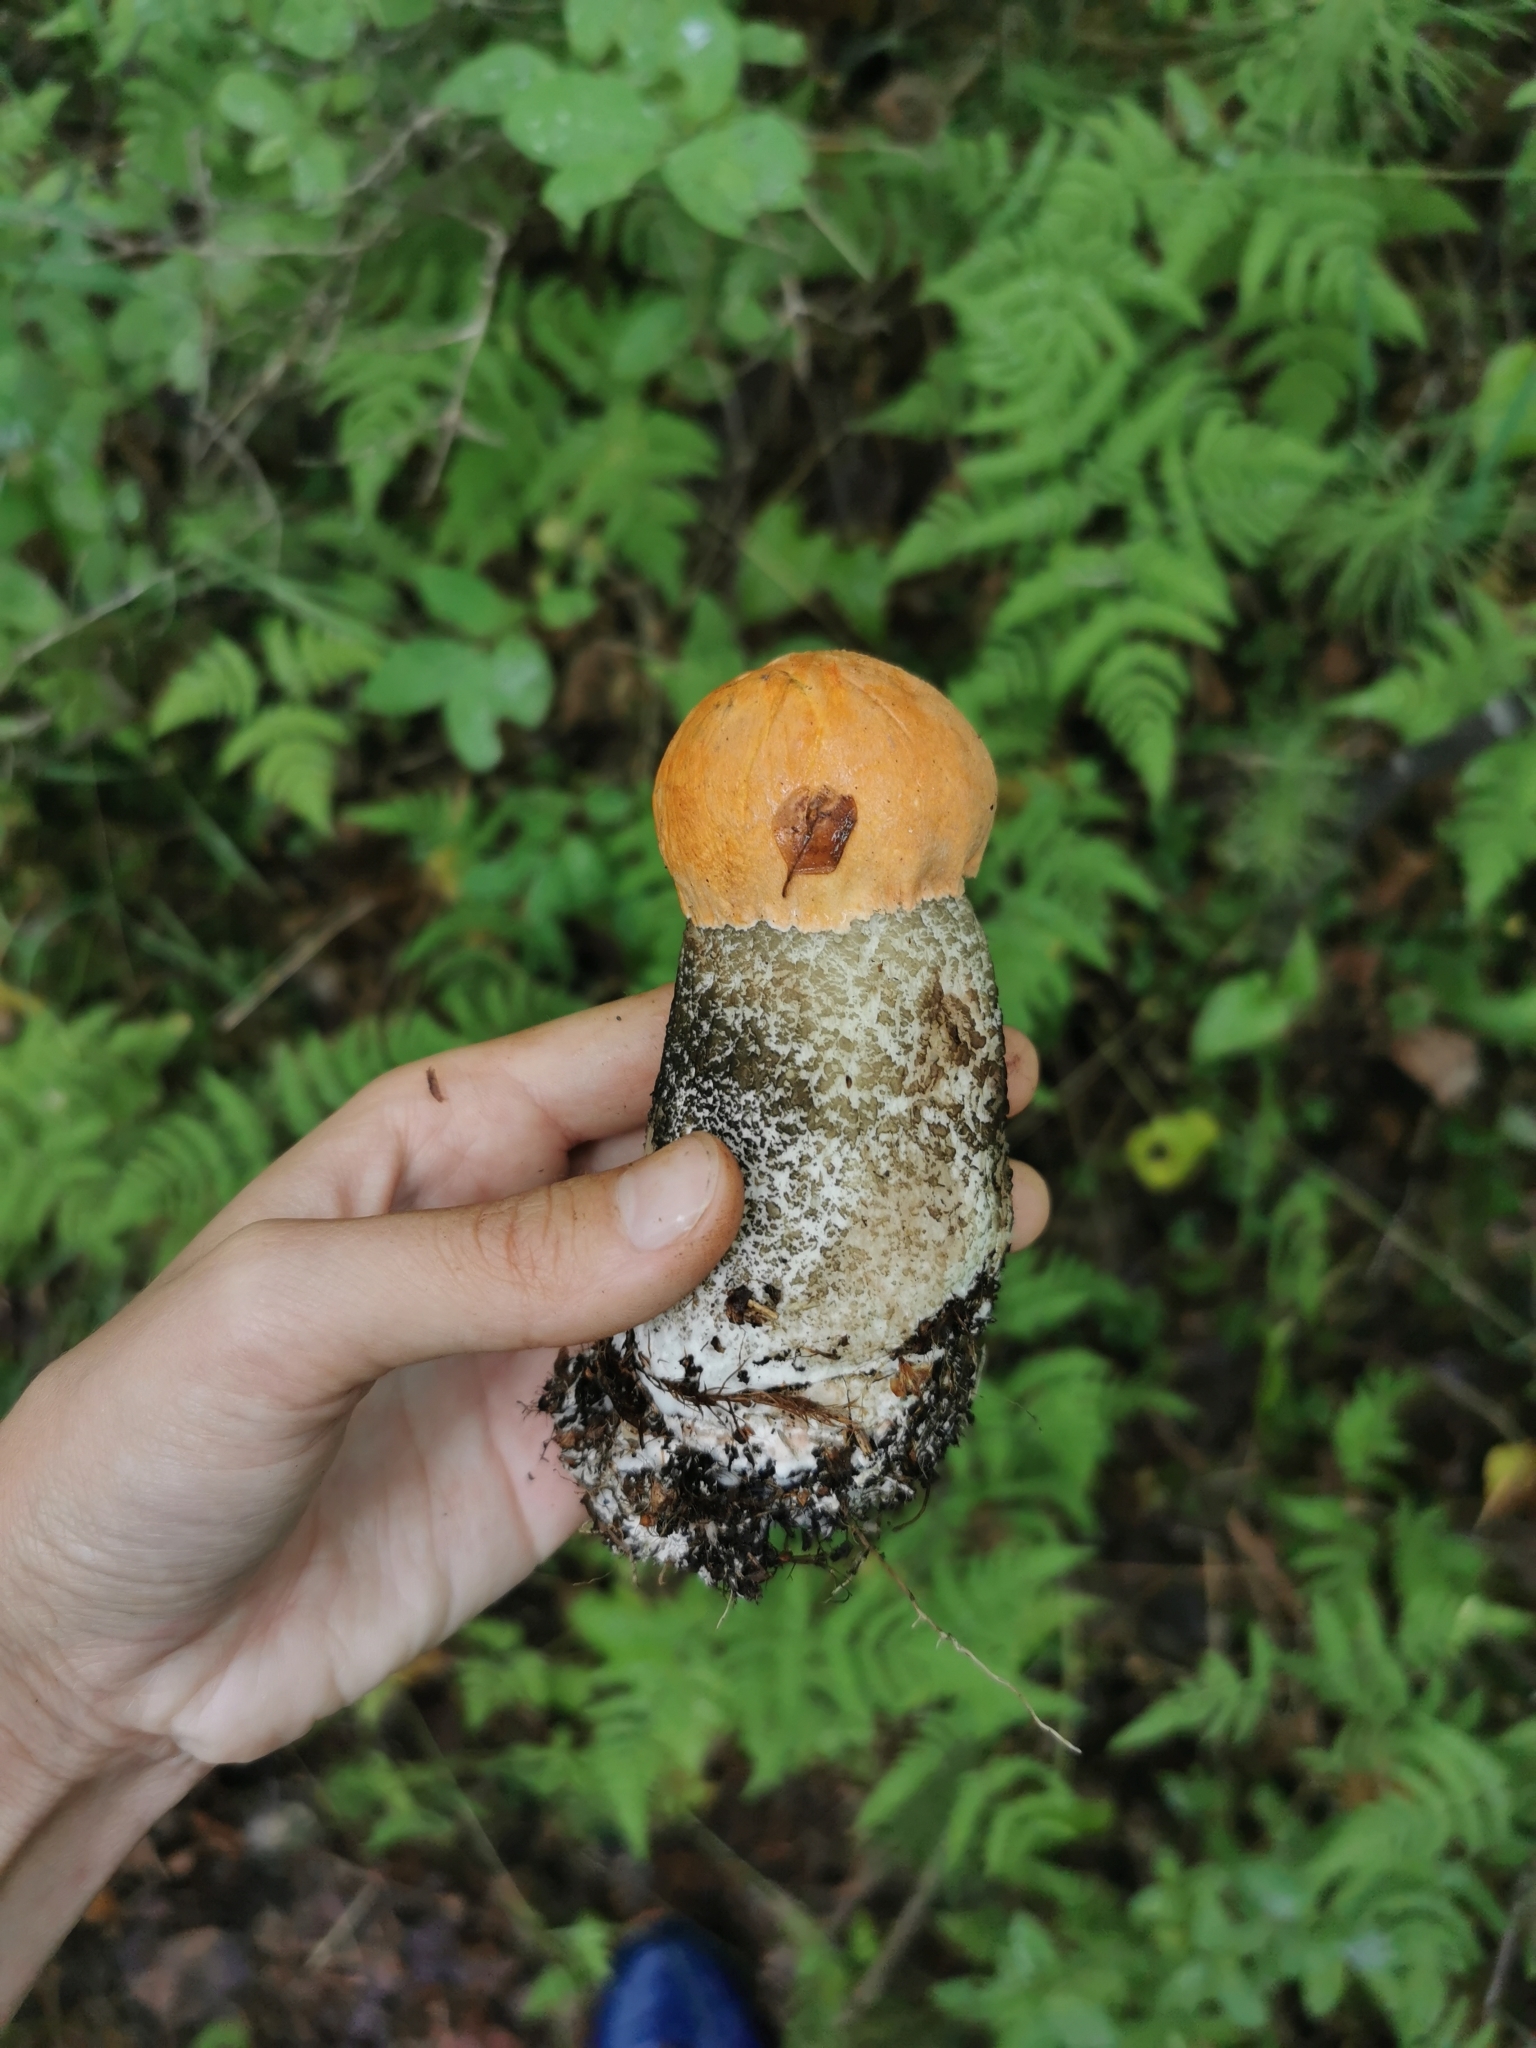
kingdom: Fungi
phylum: Basidiomycota
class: Agaricomycetes
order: Boletales
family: Boletaceae
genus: Leccinum
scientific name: Leccinum versipelle
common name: Orange birch bolete
